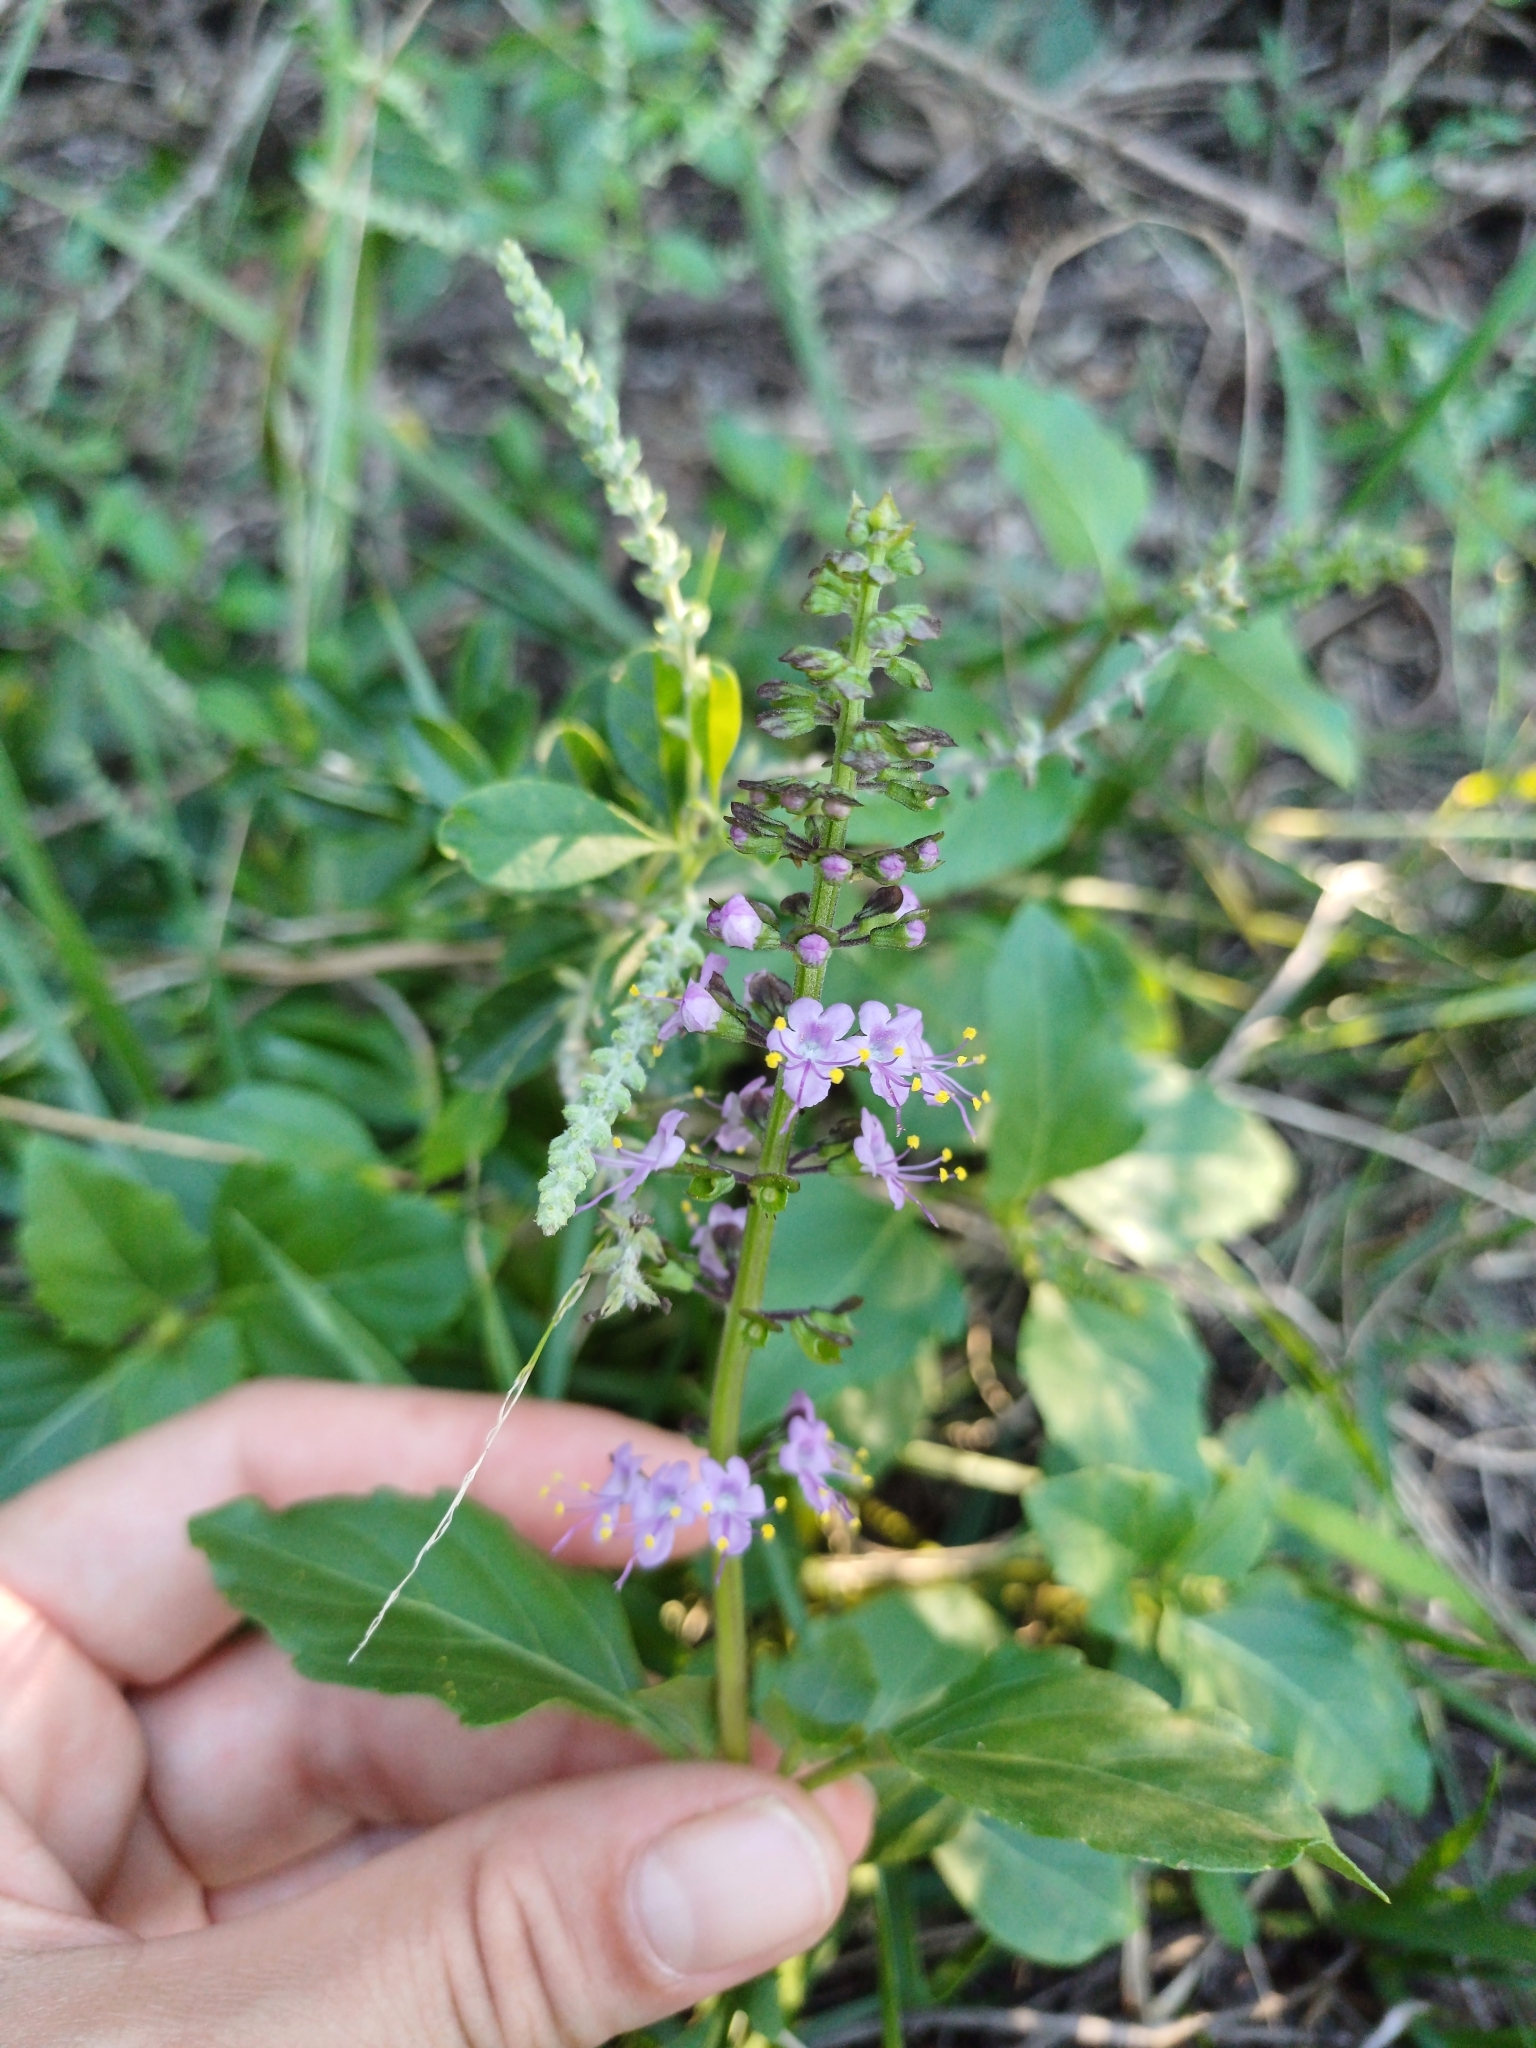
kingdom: Plantae
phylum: Tracheophyta
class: Magnoliopsida
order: Lamiales
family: Lamiaceae
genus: Ocimum
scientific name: Ocimum carnosum
